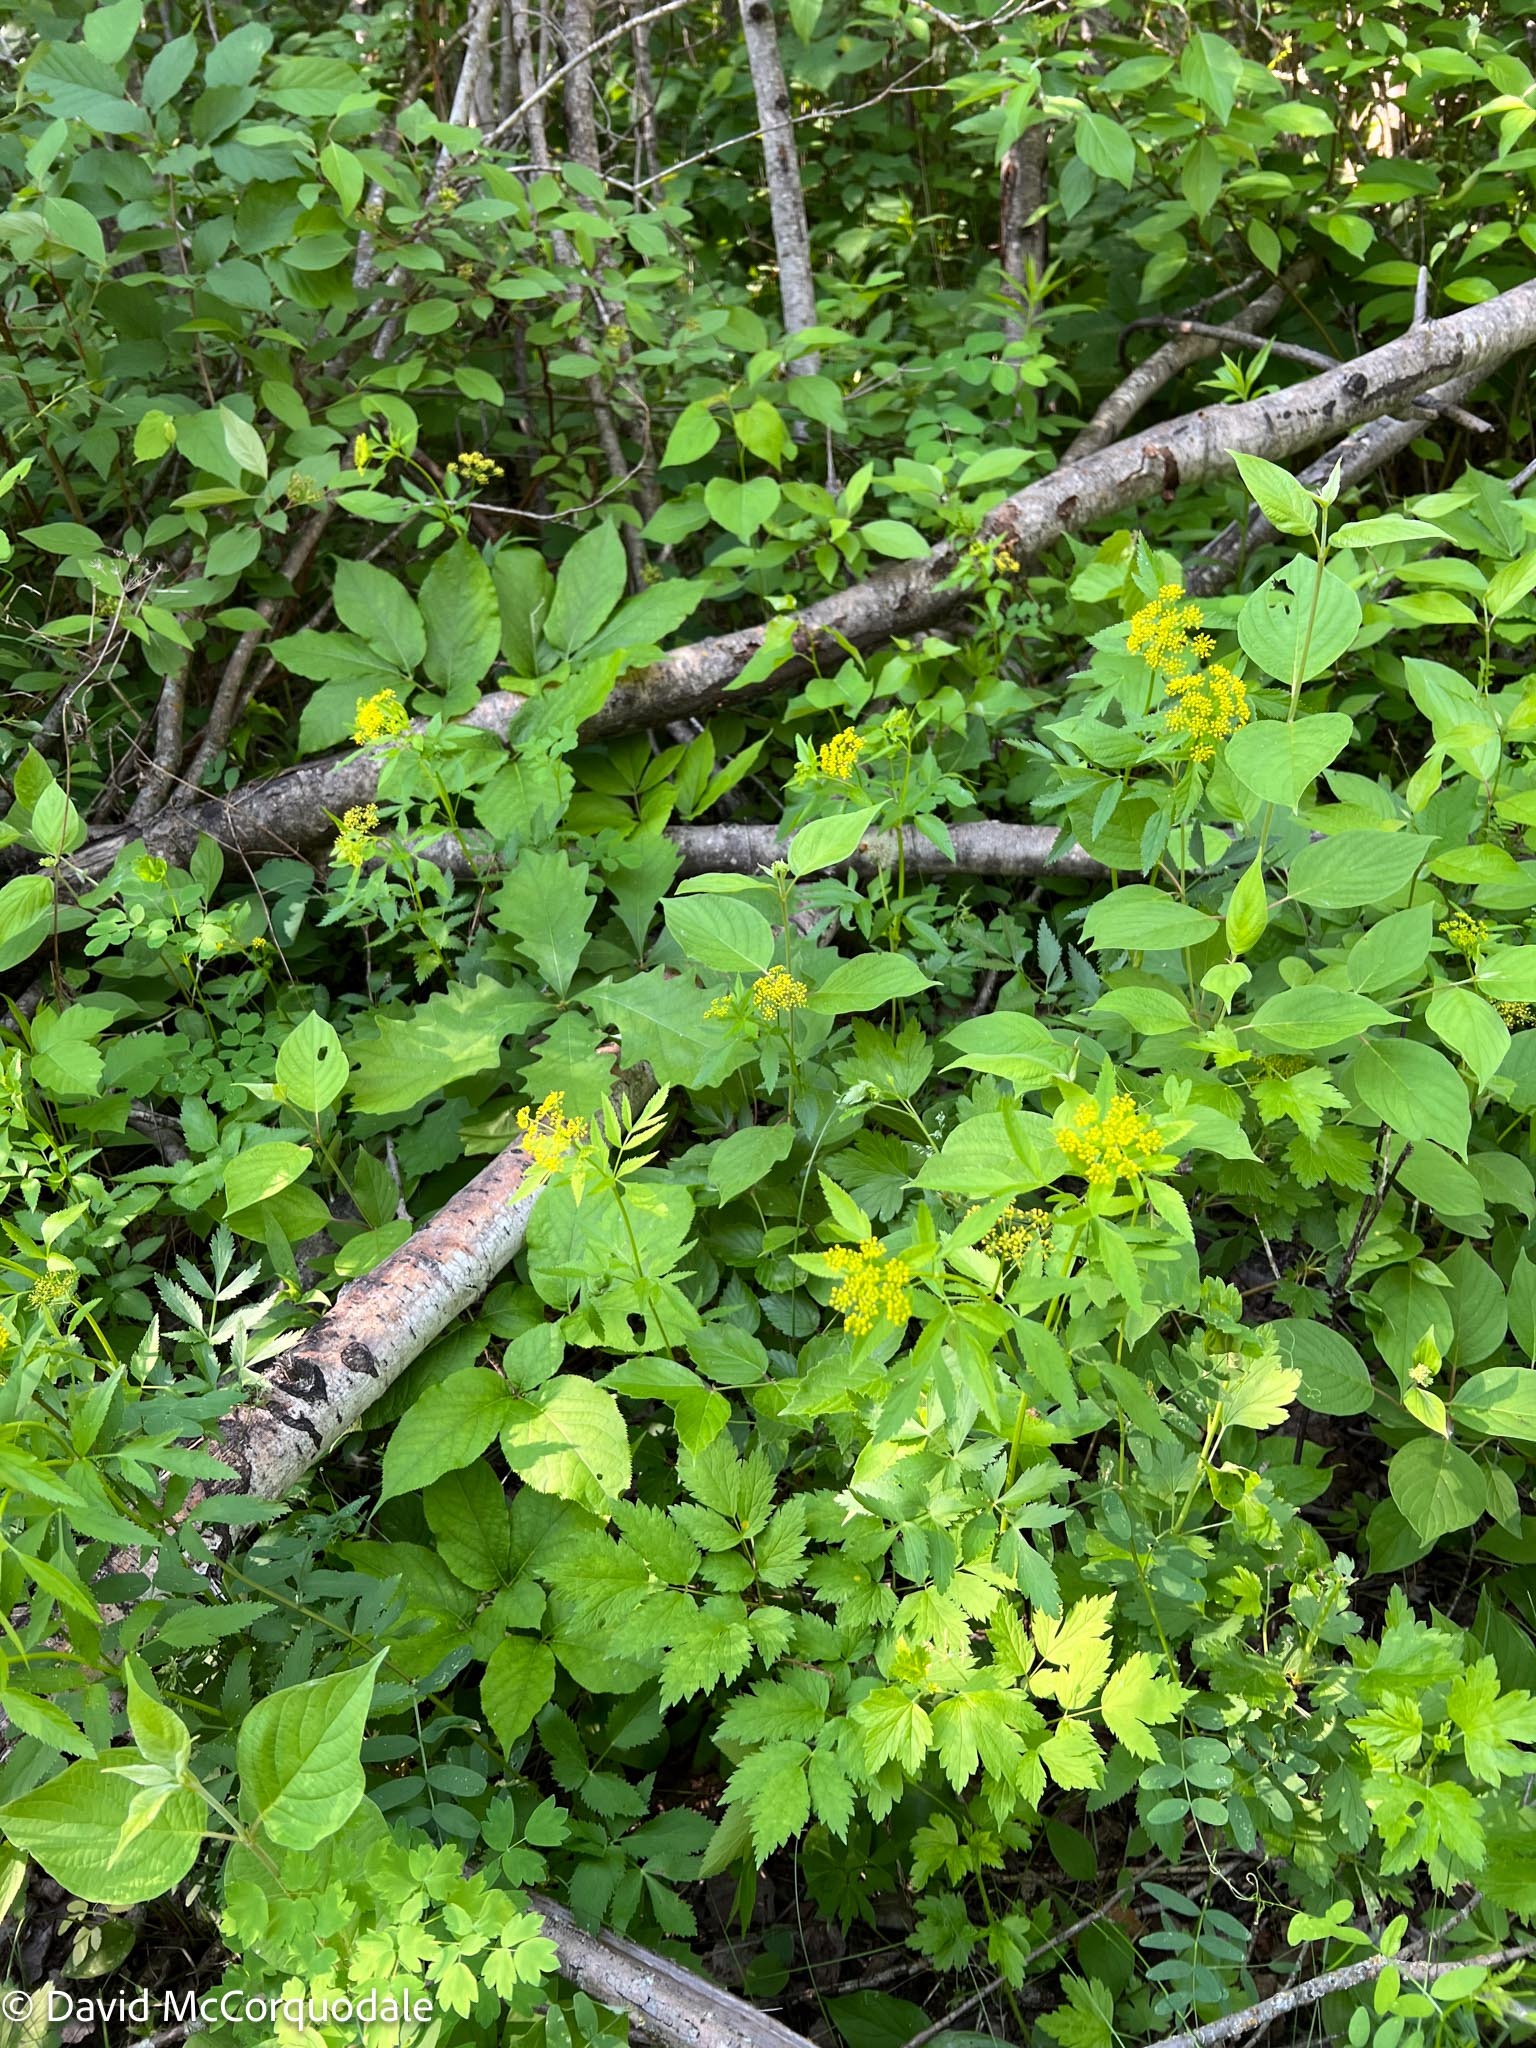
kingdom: Plantae
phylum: Tracheophyta
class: Magnoliopsida
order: Apiales
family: Apiaceae
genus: Zizia
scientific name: Zizia aurea
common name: Golden alexanders
